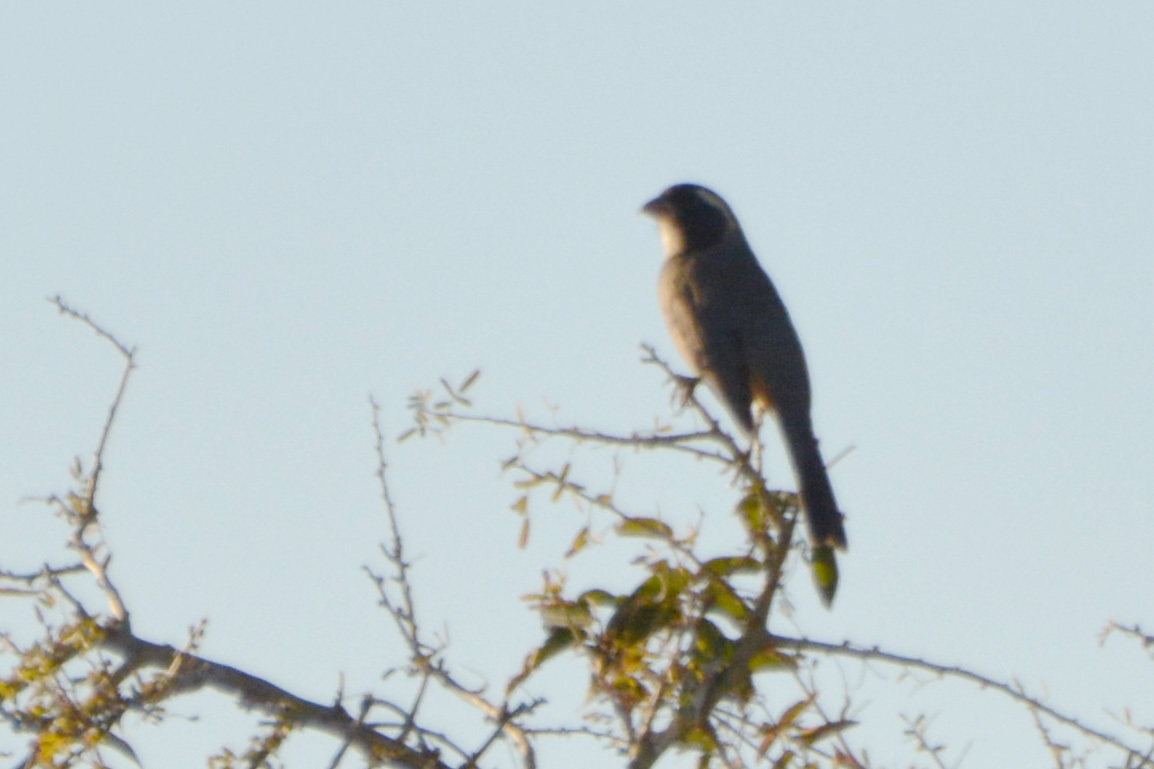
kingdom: Animalia
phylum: Chordata
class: Aves
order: Passeriformes
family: Thraupidae
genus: Saltator
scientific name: Saltator aurantiirostris
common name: Golden-billed saltator
